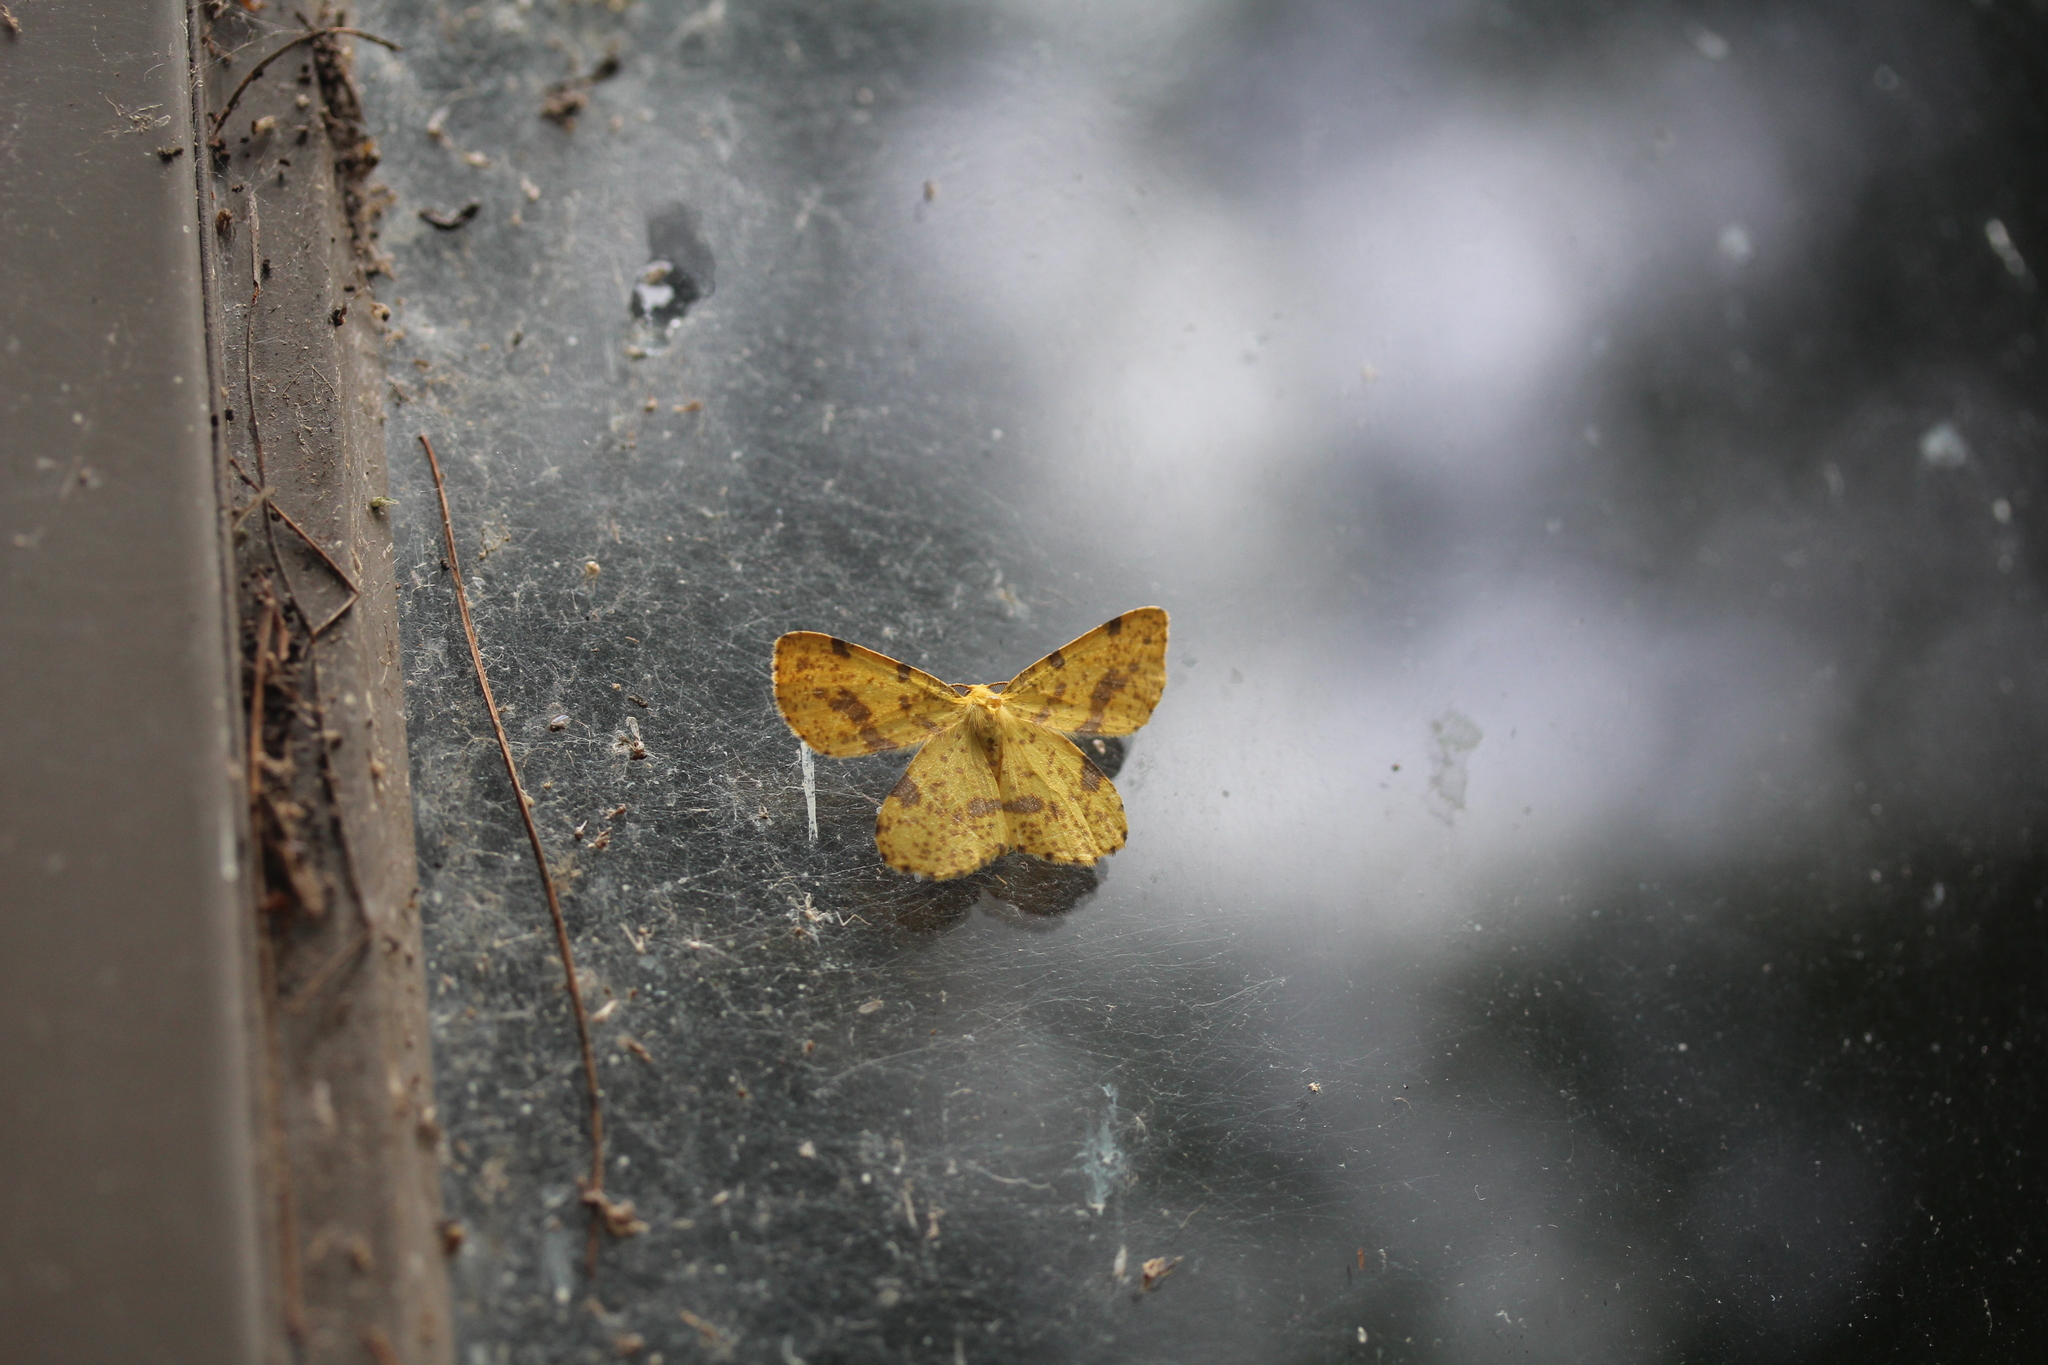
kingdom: Animalia
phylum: Arthropoda
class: Insecta
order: Lepidoptera
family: Geometridae
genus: Xanthotype
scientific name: Xanthotype
